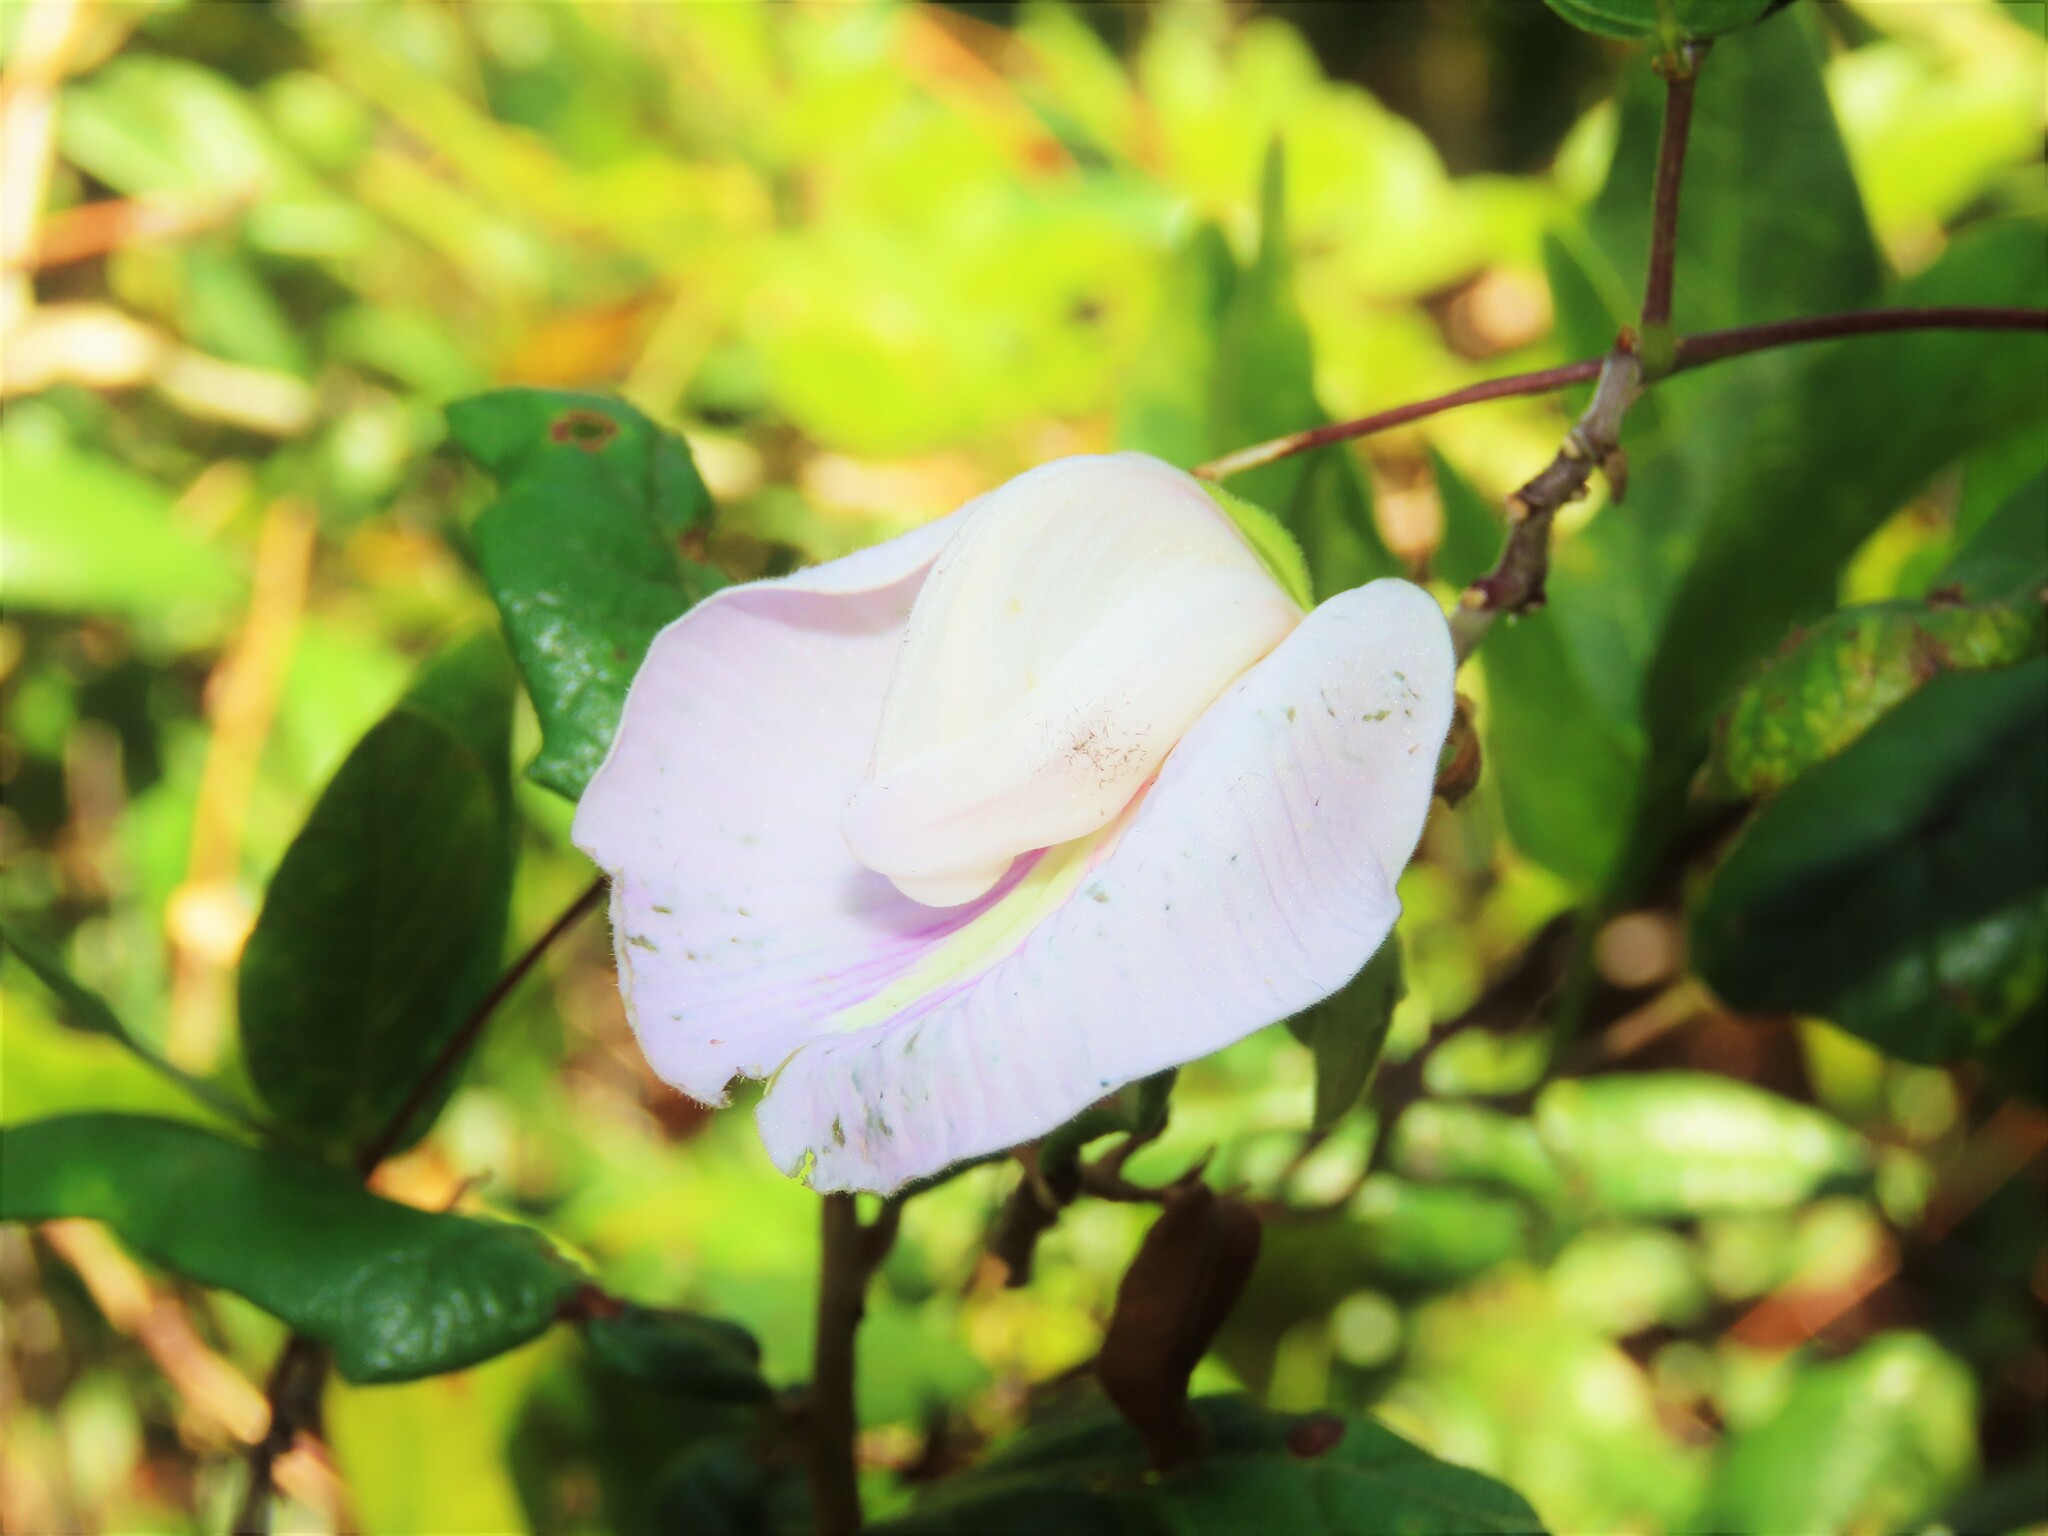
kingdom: Plantae
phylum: Tracheophyta
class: Magnoliopsida
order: Fabales
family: Fabaceae
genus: Centrosema
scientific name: Centrosema arenicola
